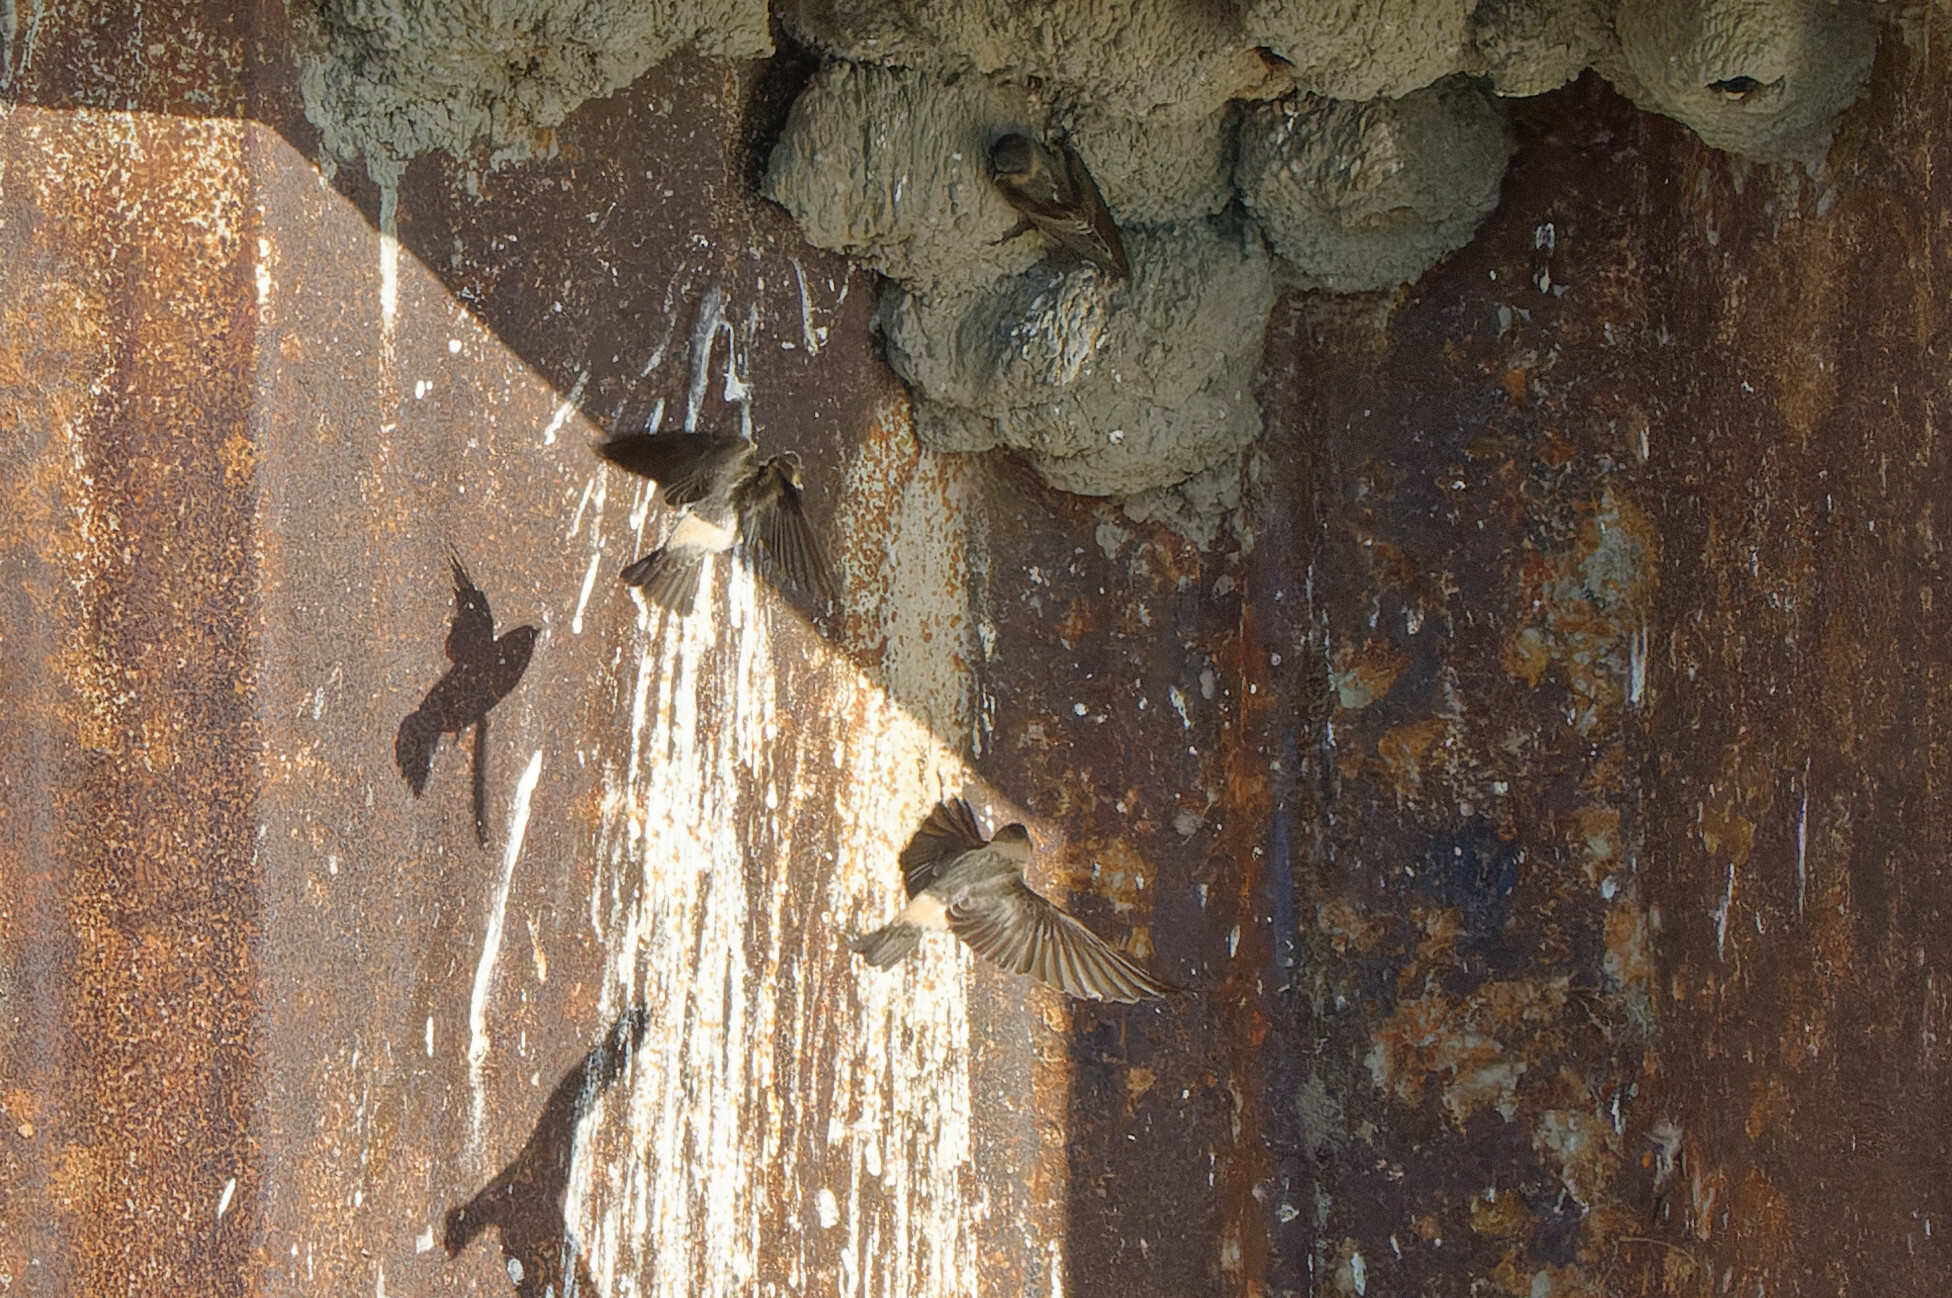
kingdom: Animalia
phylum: Chordata
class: Aves
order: Passeriformes
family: Hirundinidae
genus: Petrochelidon
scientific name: Petrochelidon pyrrhonota
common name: American cliff swallow
